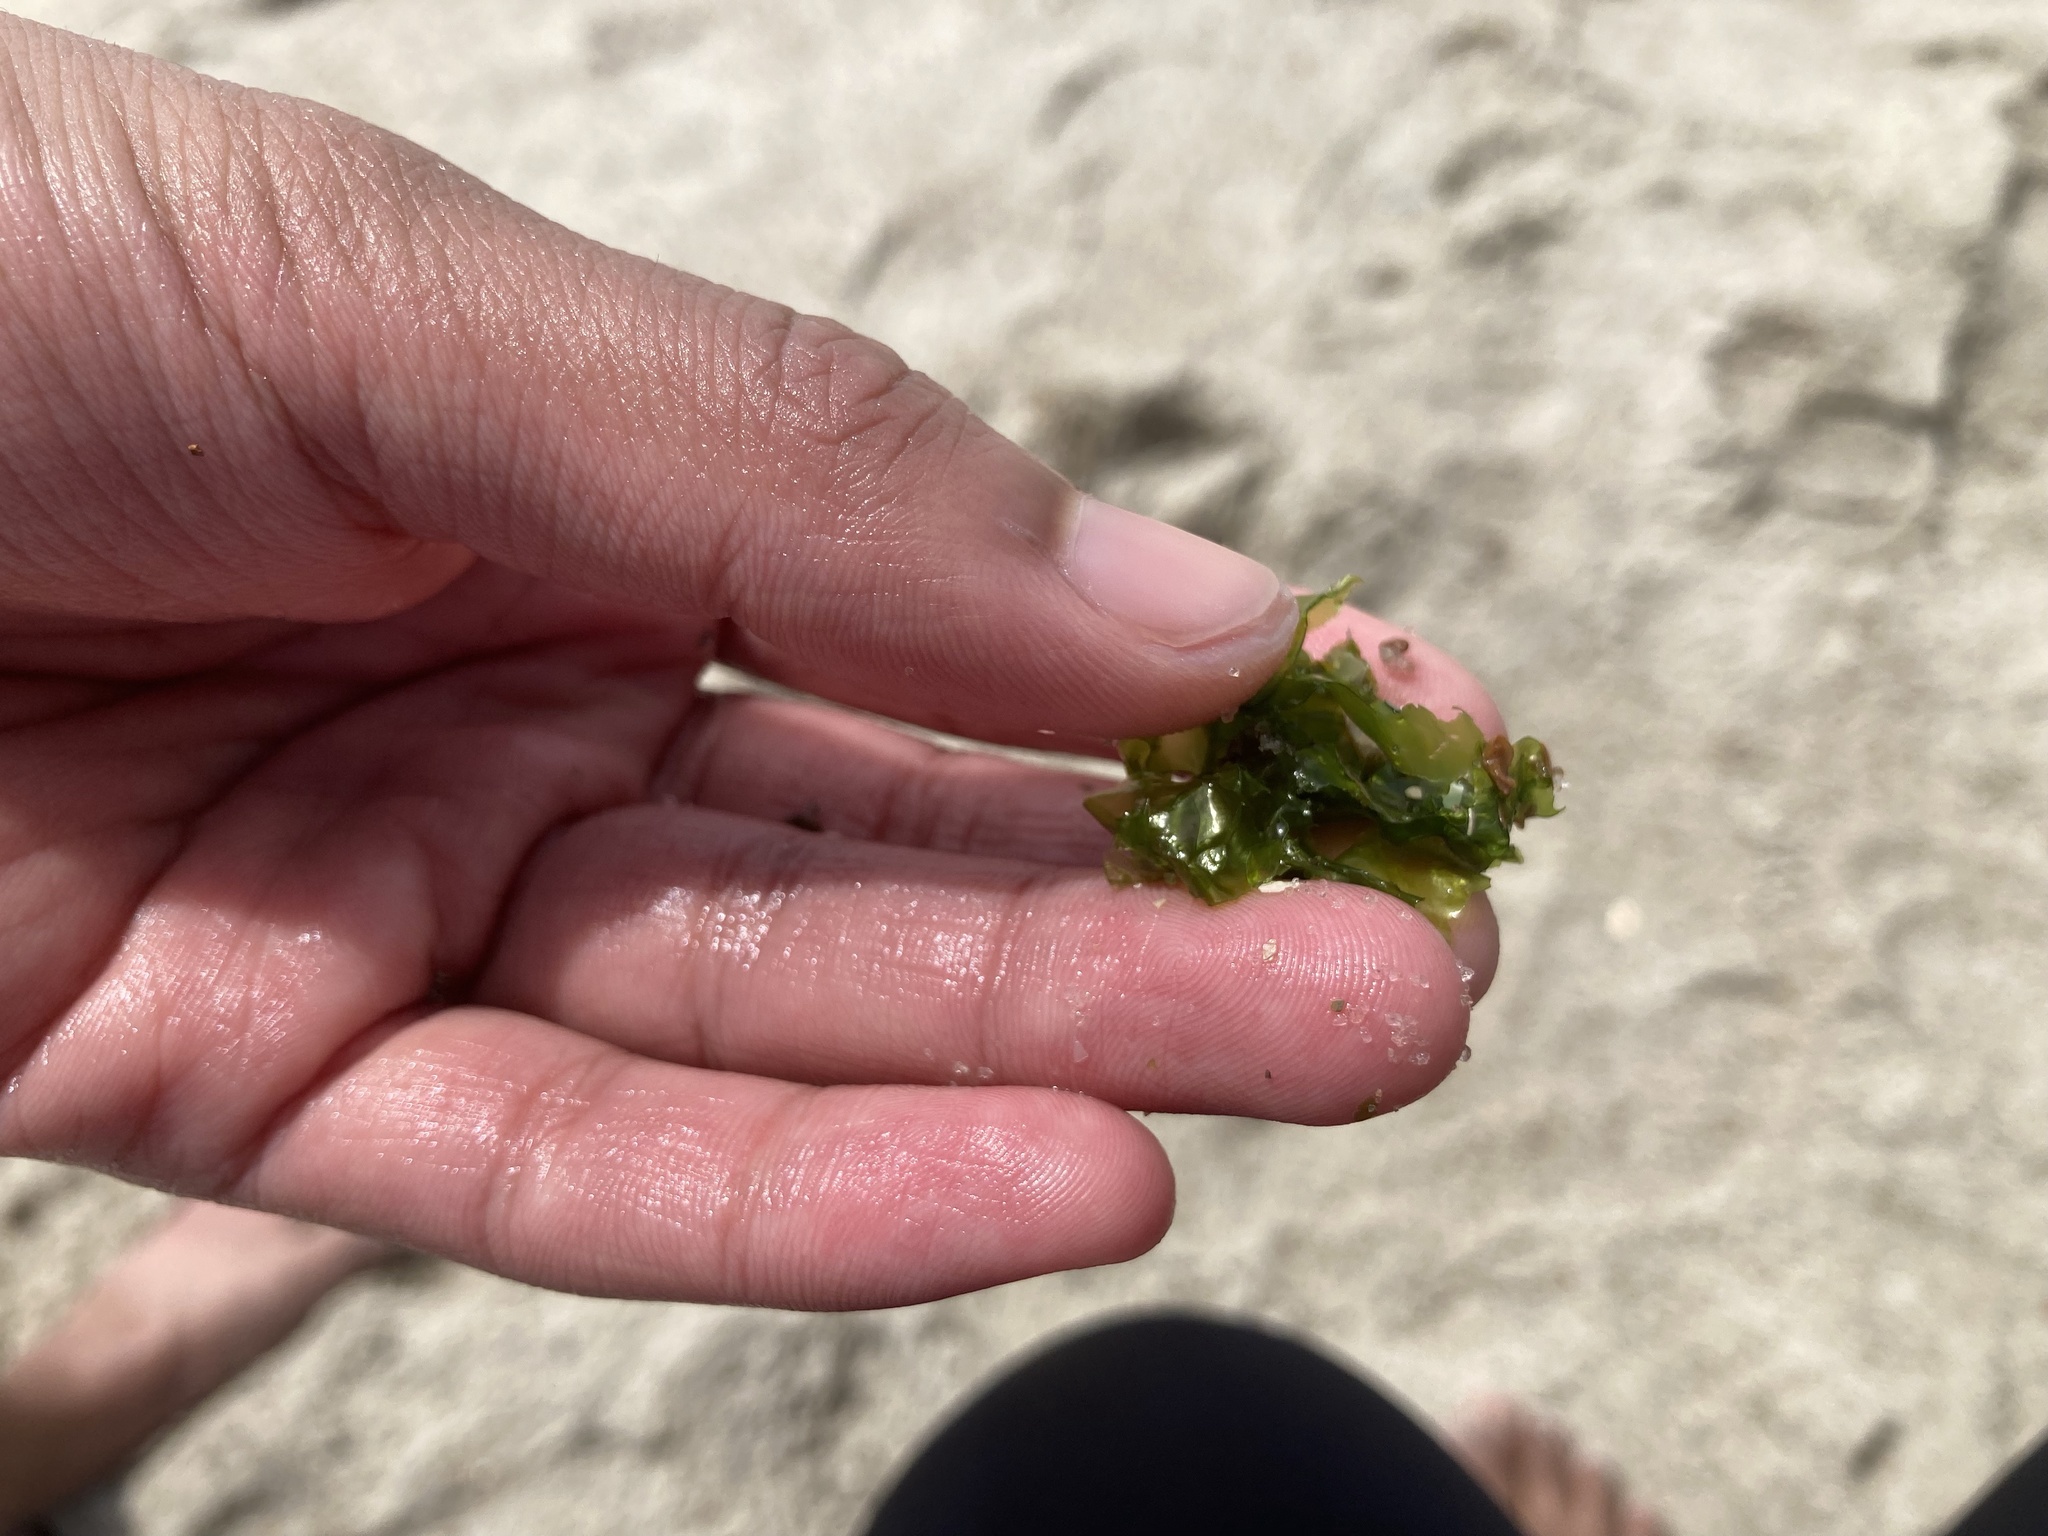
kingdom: Plantae
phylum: Chlorophyta
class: Ulvophyceae
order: Ulvales
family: Ulvaceae
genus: Ulva
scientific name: Ulva lactuca
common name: Sea lettuce
